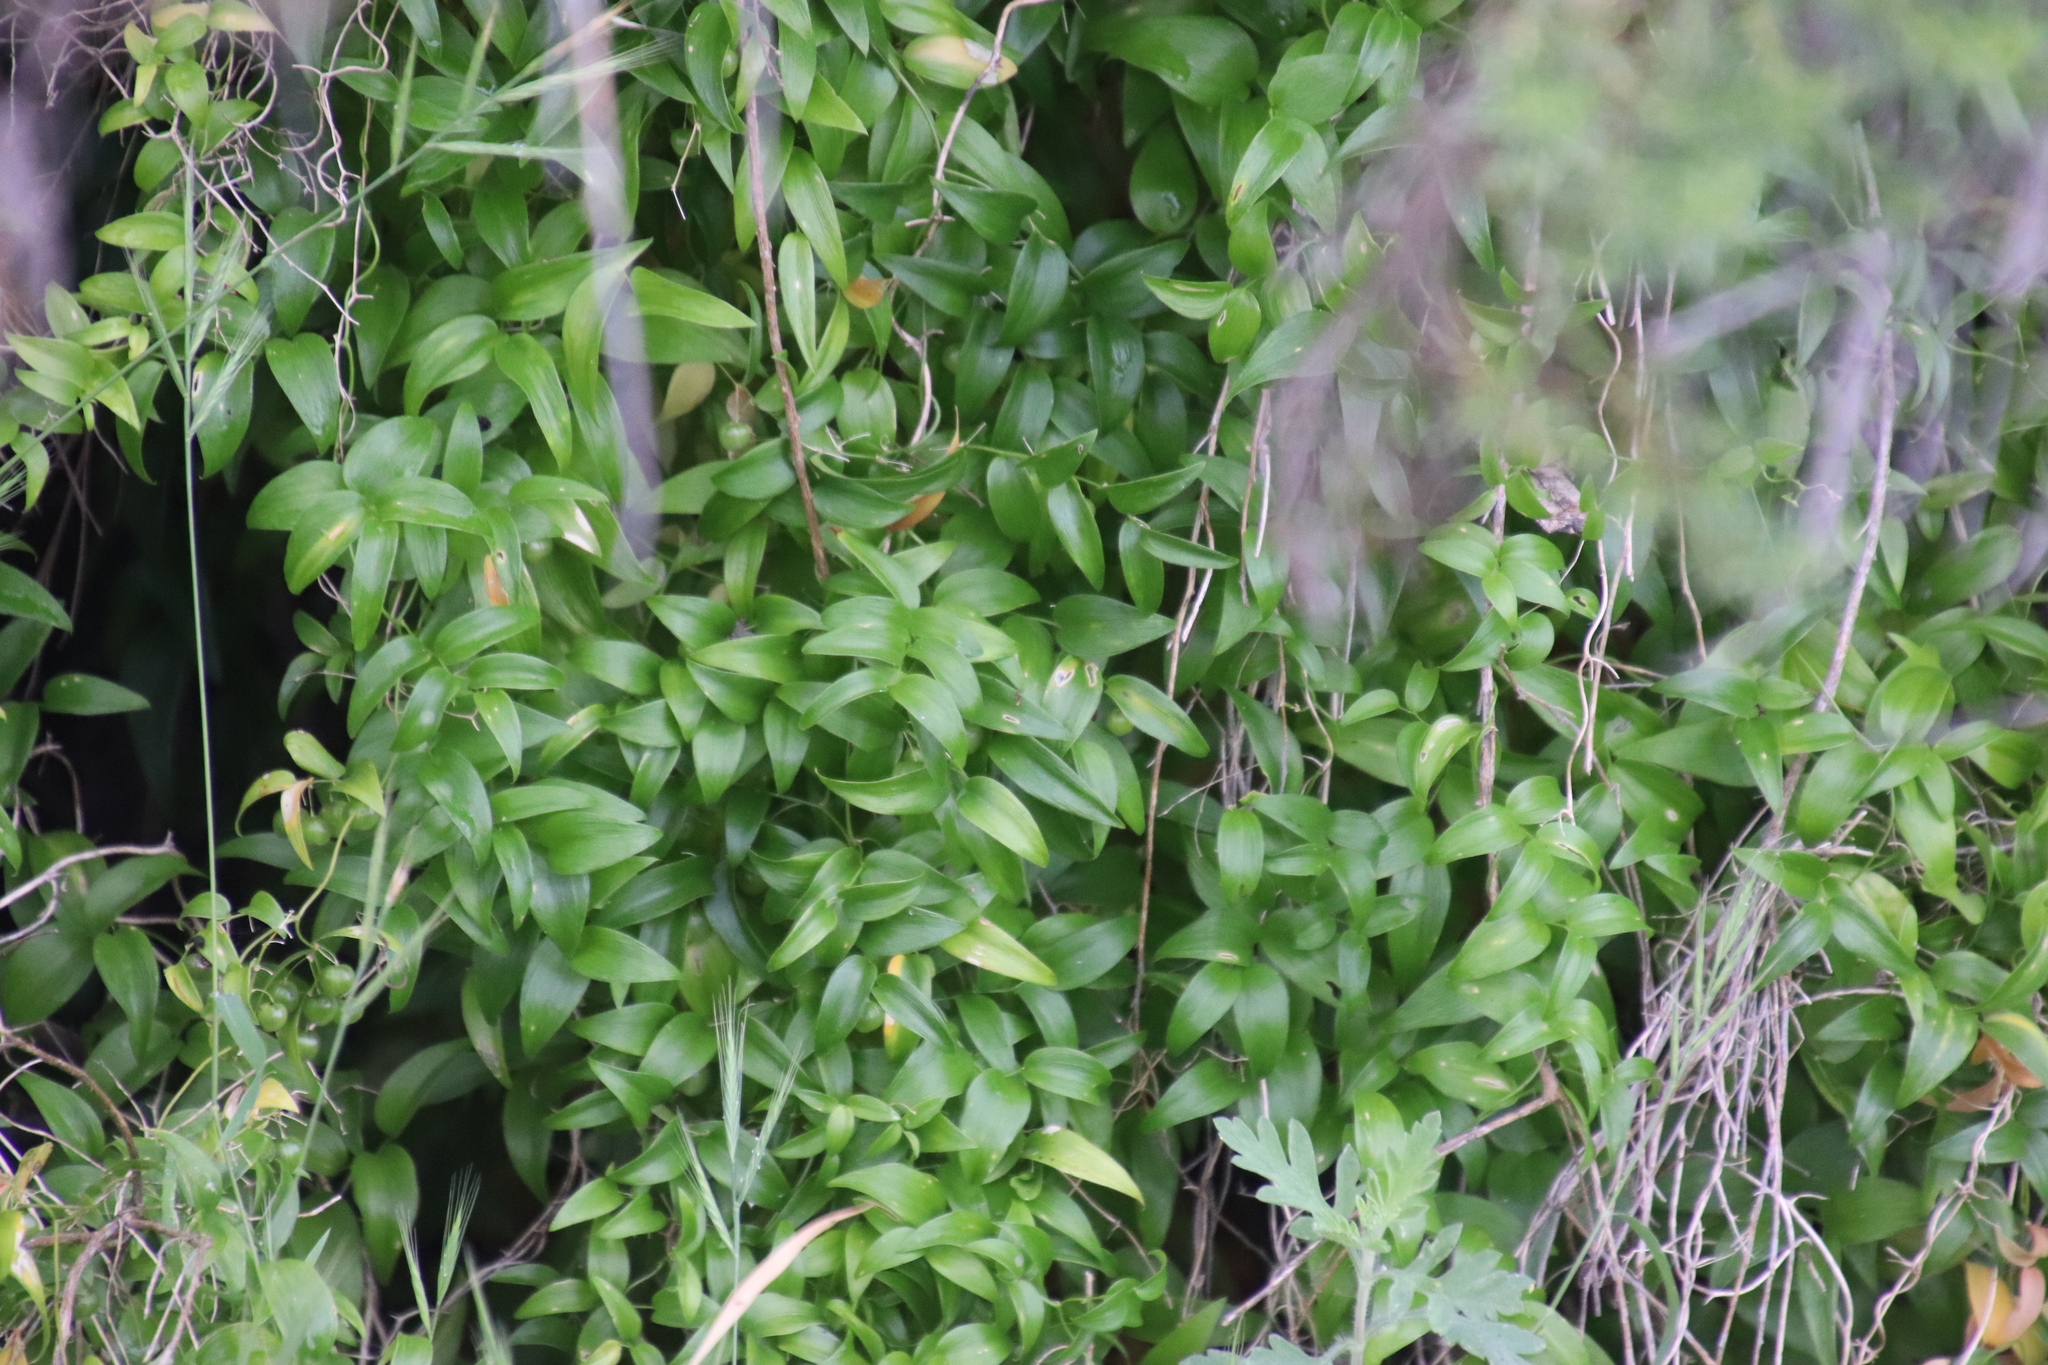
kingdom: Plantae
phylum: Tracheophyta
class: Liliopsida
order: Asparagales
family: Asparagaceae
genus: Asparagus
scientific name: Asparagus asparagoides
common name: African asparagus fern
